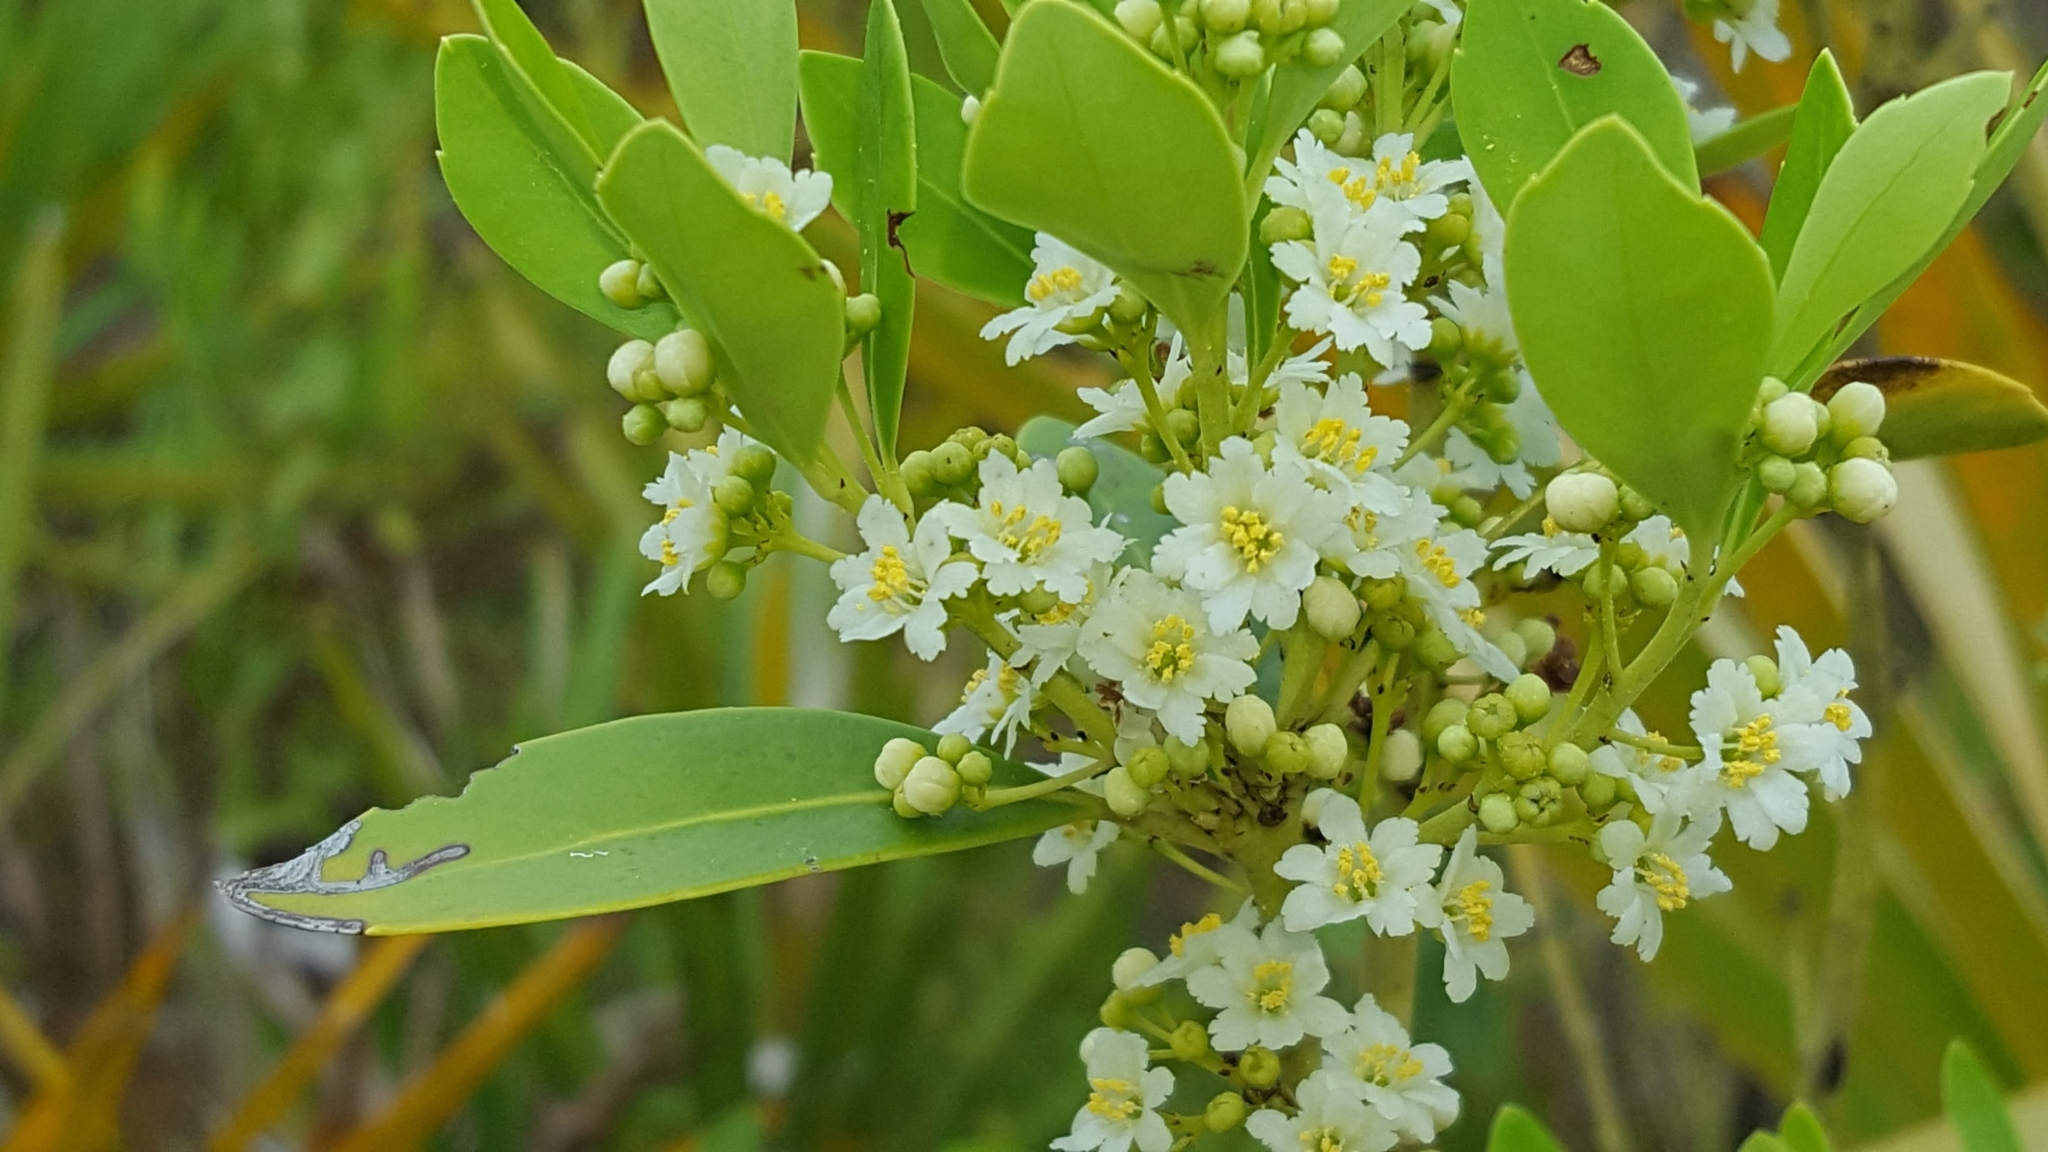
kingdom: Plantae
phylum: Tracheophyta
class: Magnoliopsida
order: Aquifoliales
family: Aquifoliaceae
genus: Ilex
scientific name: Ilex glabra
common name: Bitter gallberry
